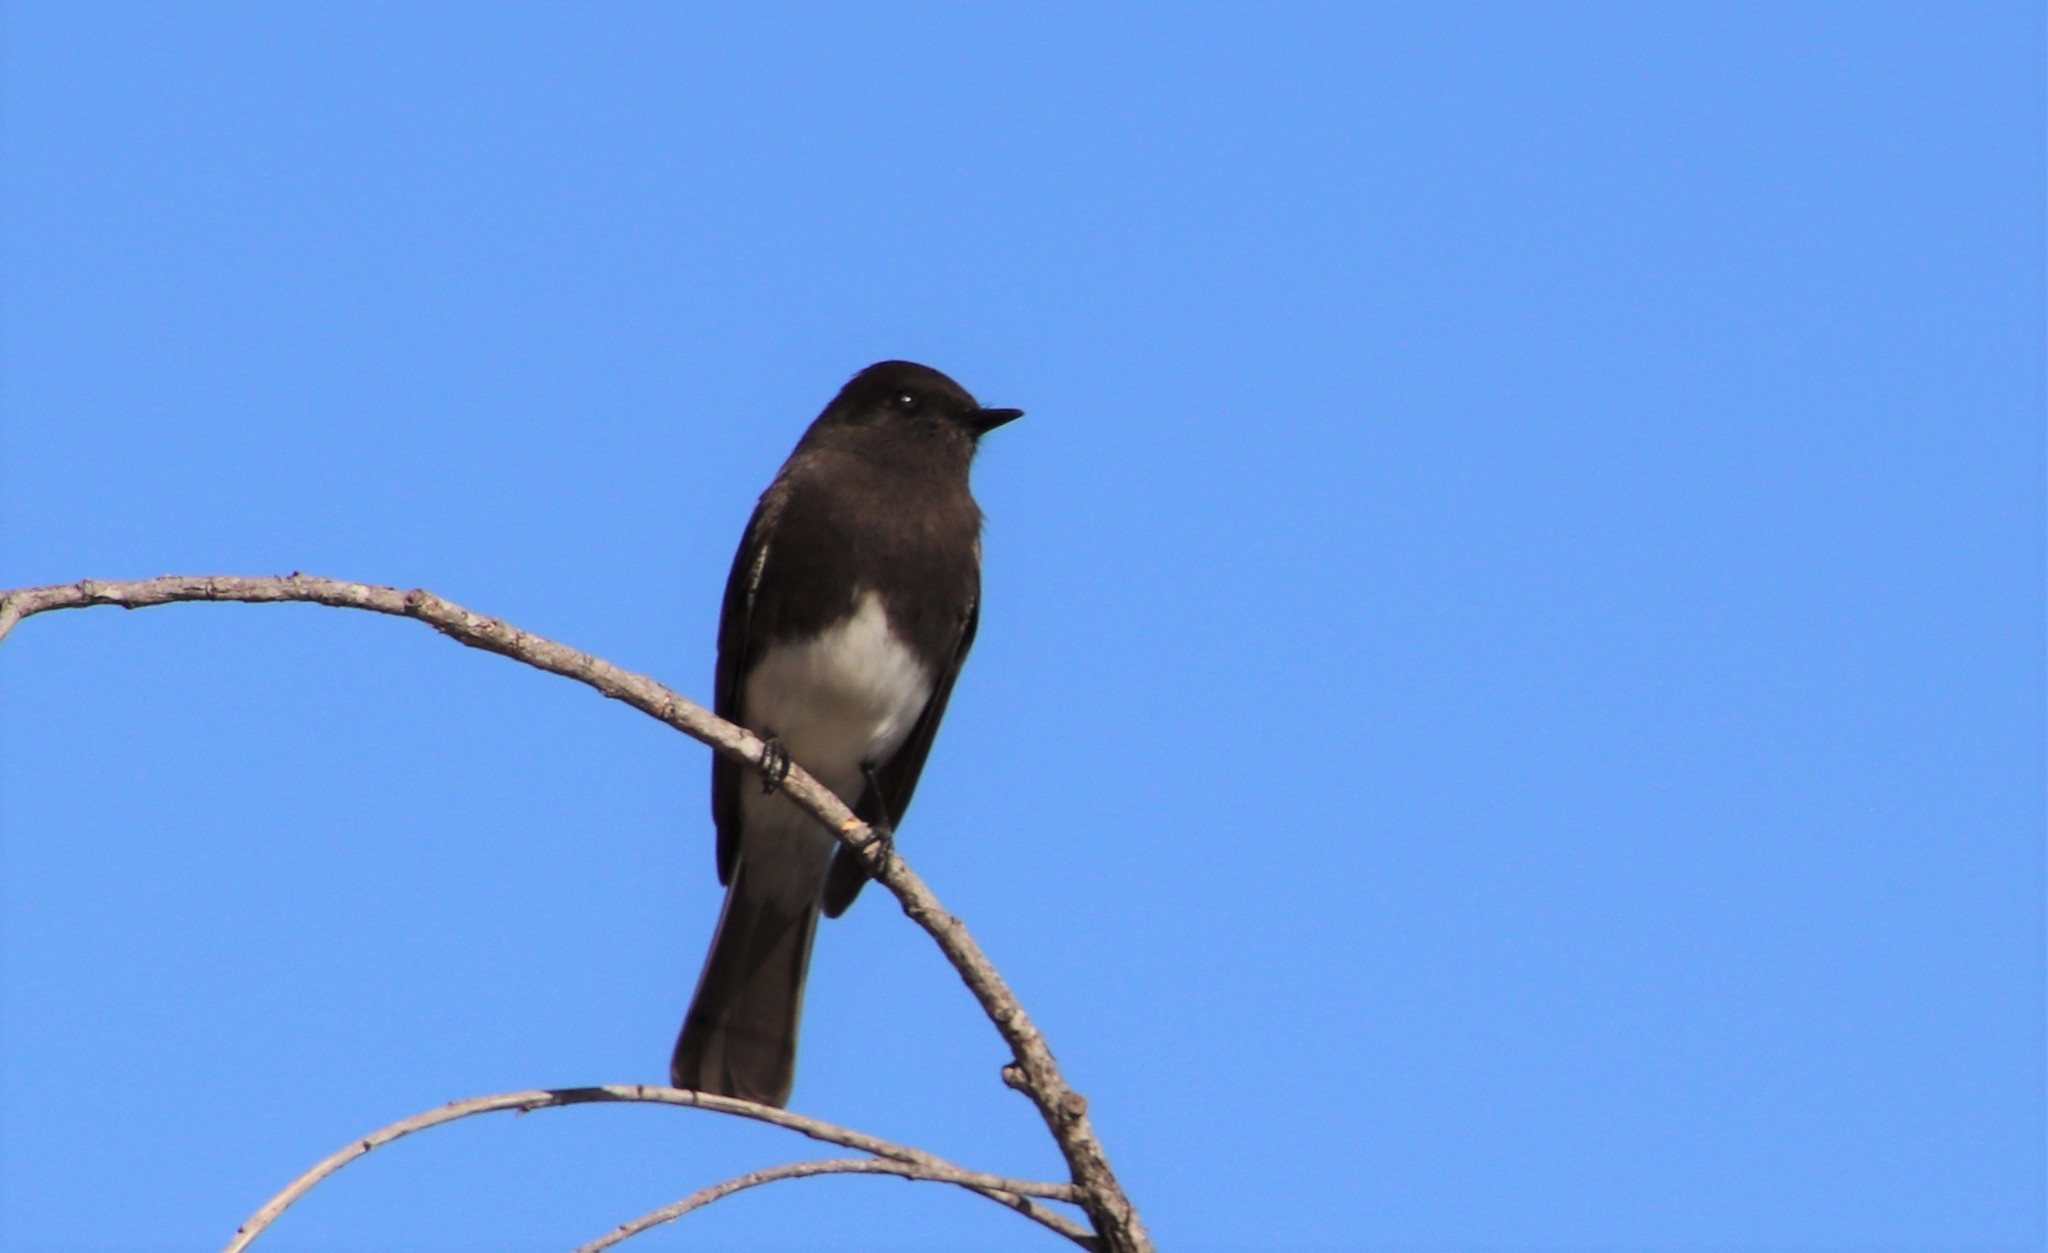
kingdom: Animalia
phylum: Chordata
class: Aves
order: Passeriformes
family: Tyrannidae
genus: Sayornis
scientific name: Sayornis nigricans
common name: Black phoebe
